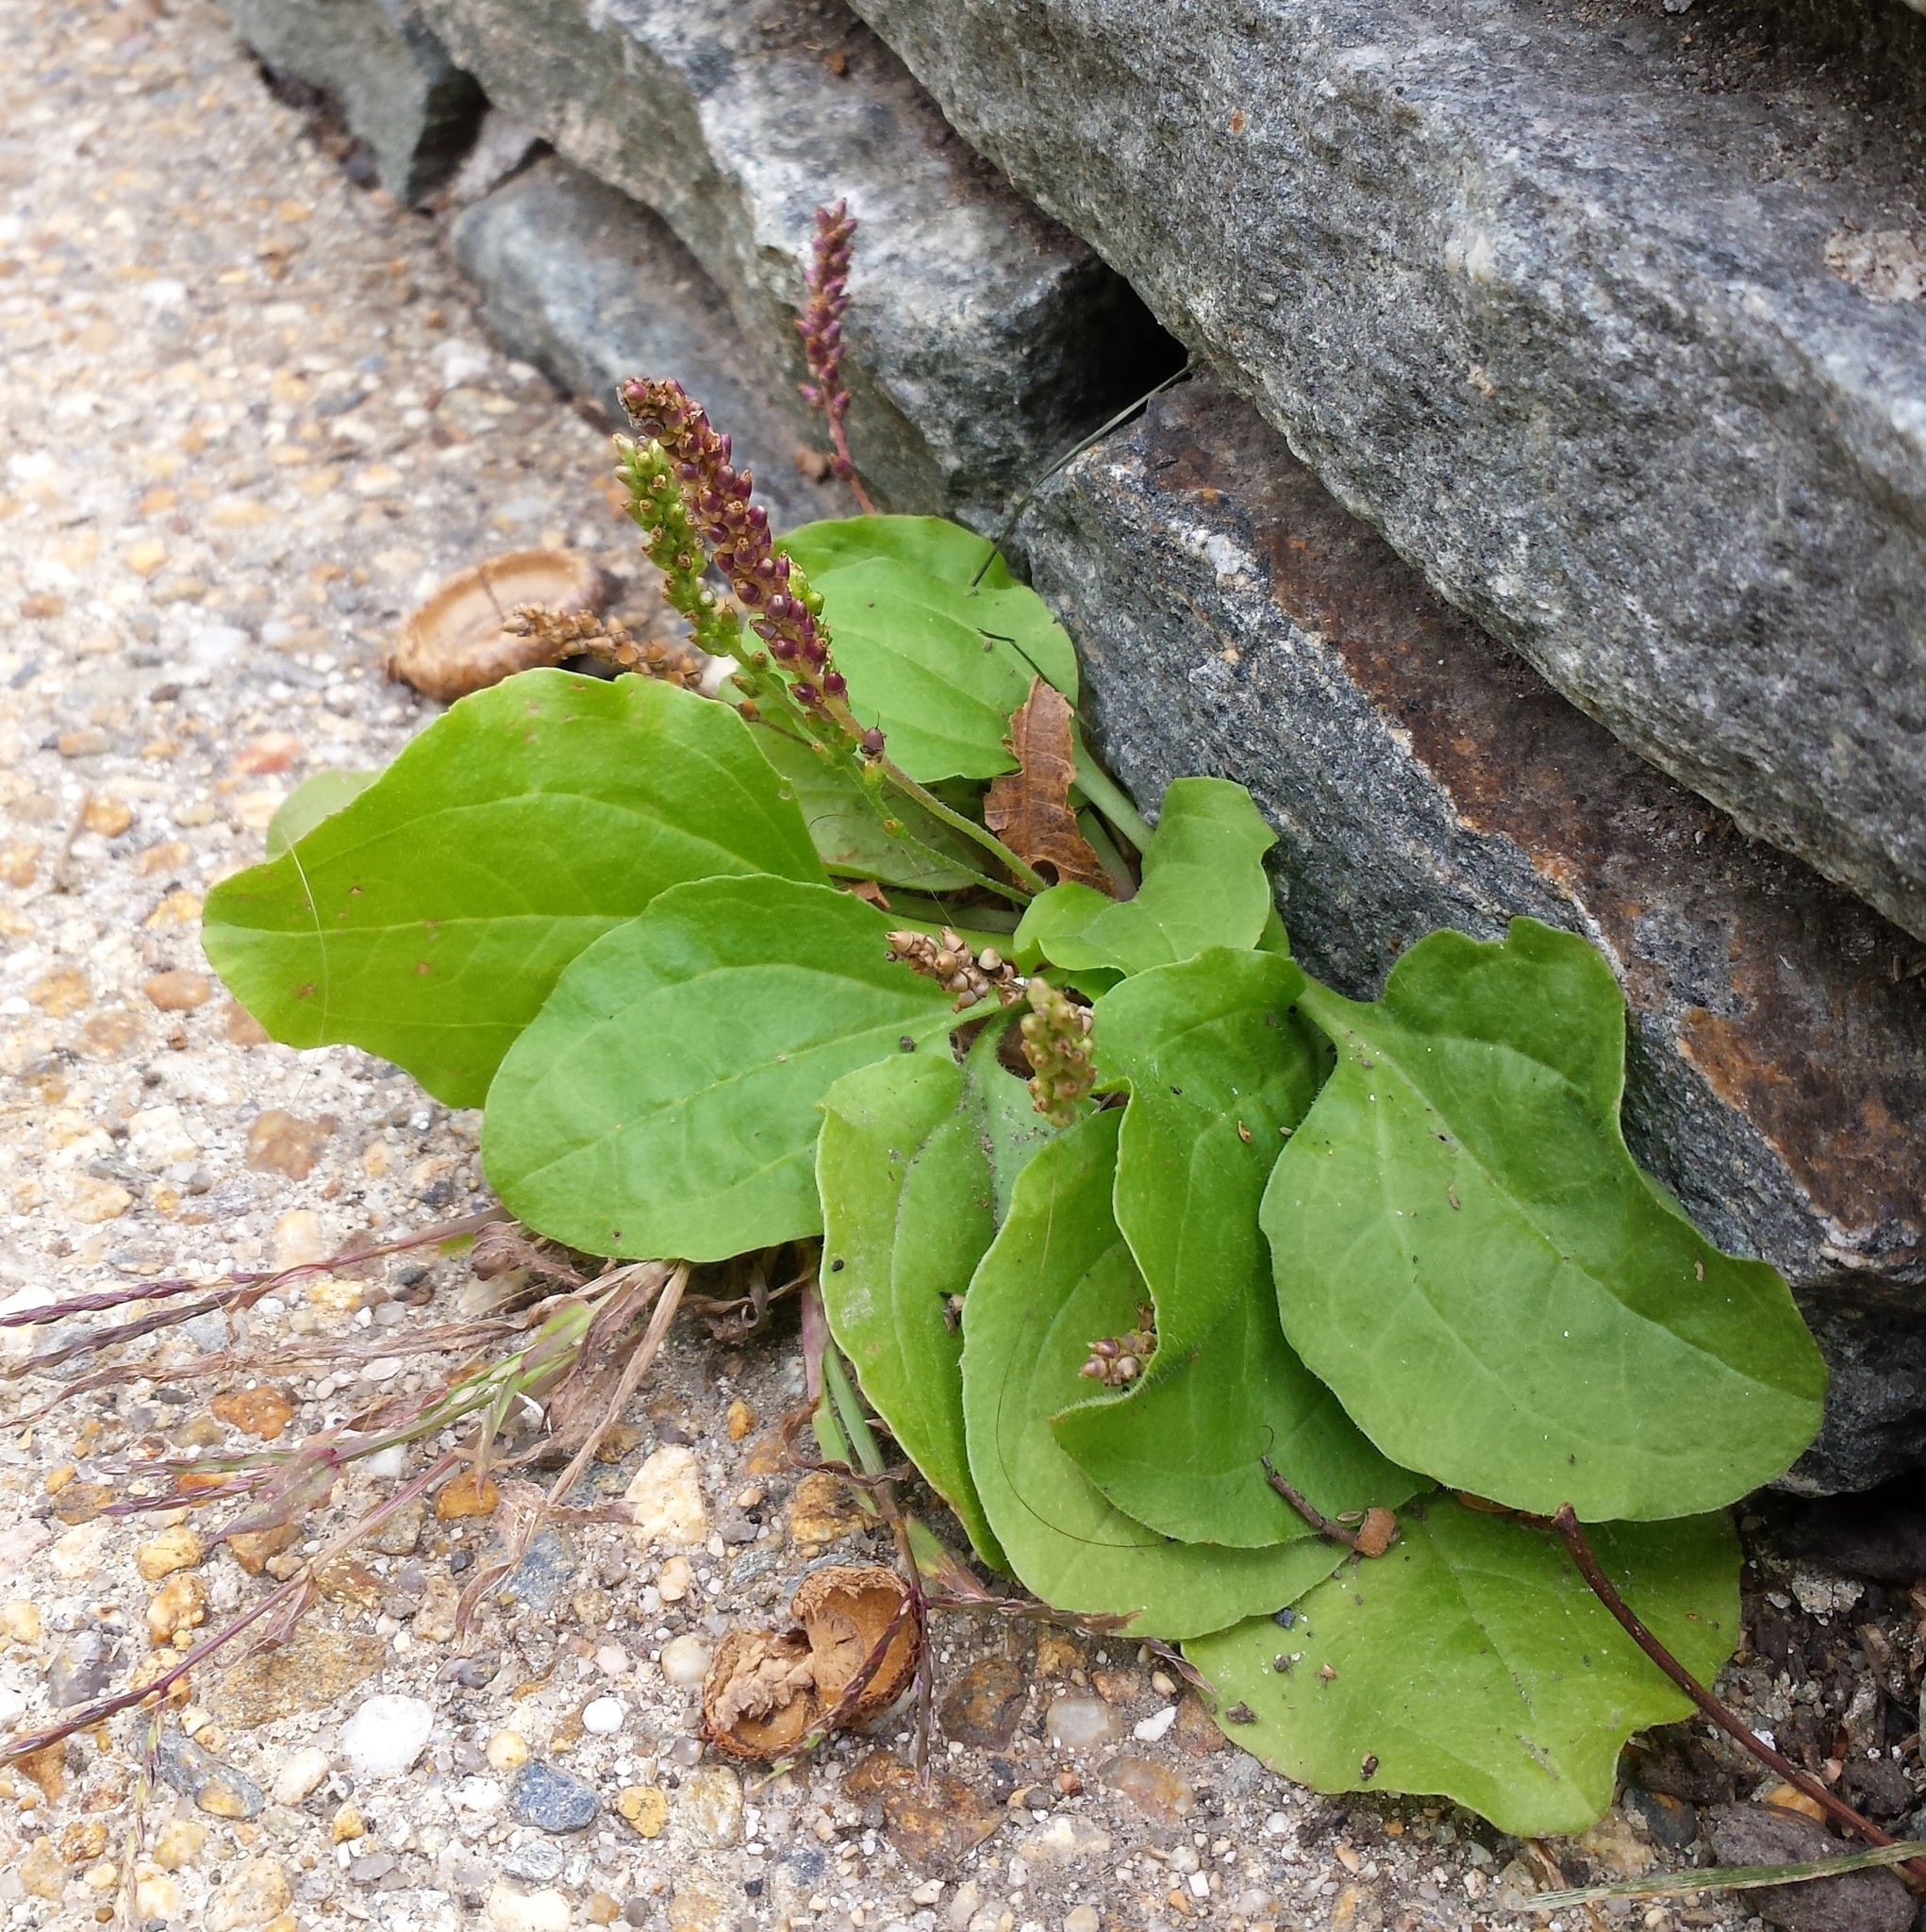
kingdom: Plantae
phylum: Tracheophyta
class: Magnoliopsida
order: Lamiales
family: Plantaginaceae
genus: Plantago
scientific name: Plantago major
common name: Common plantain
